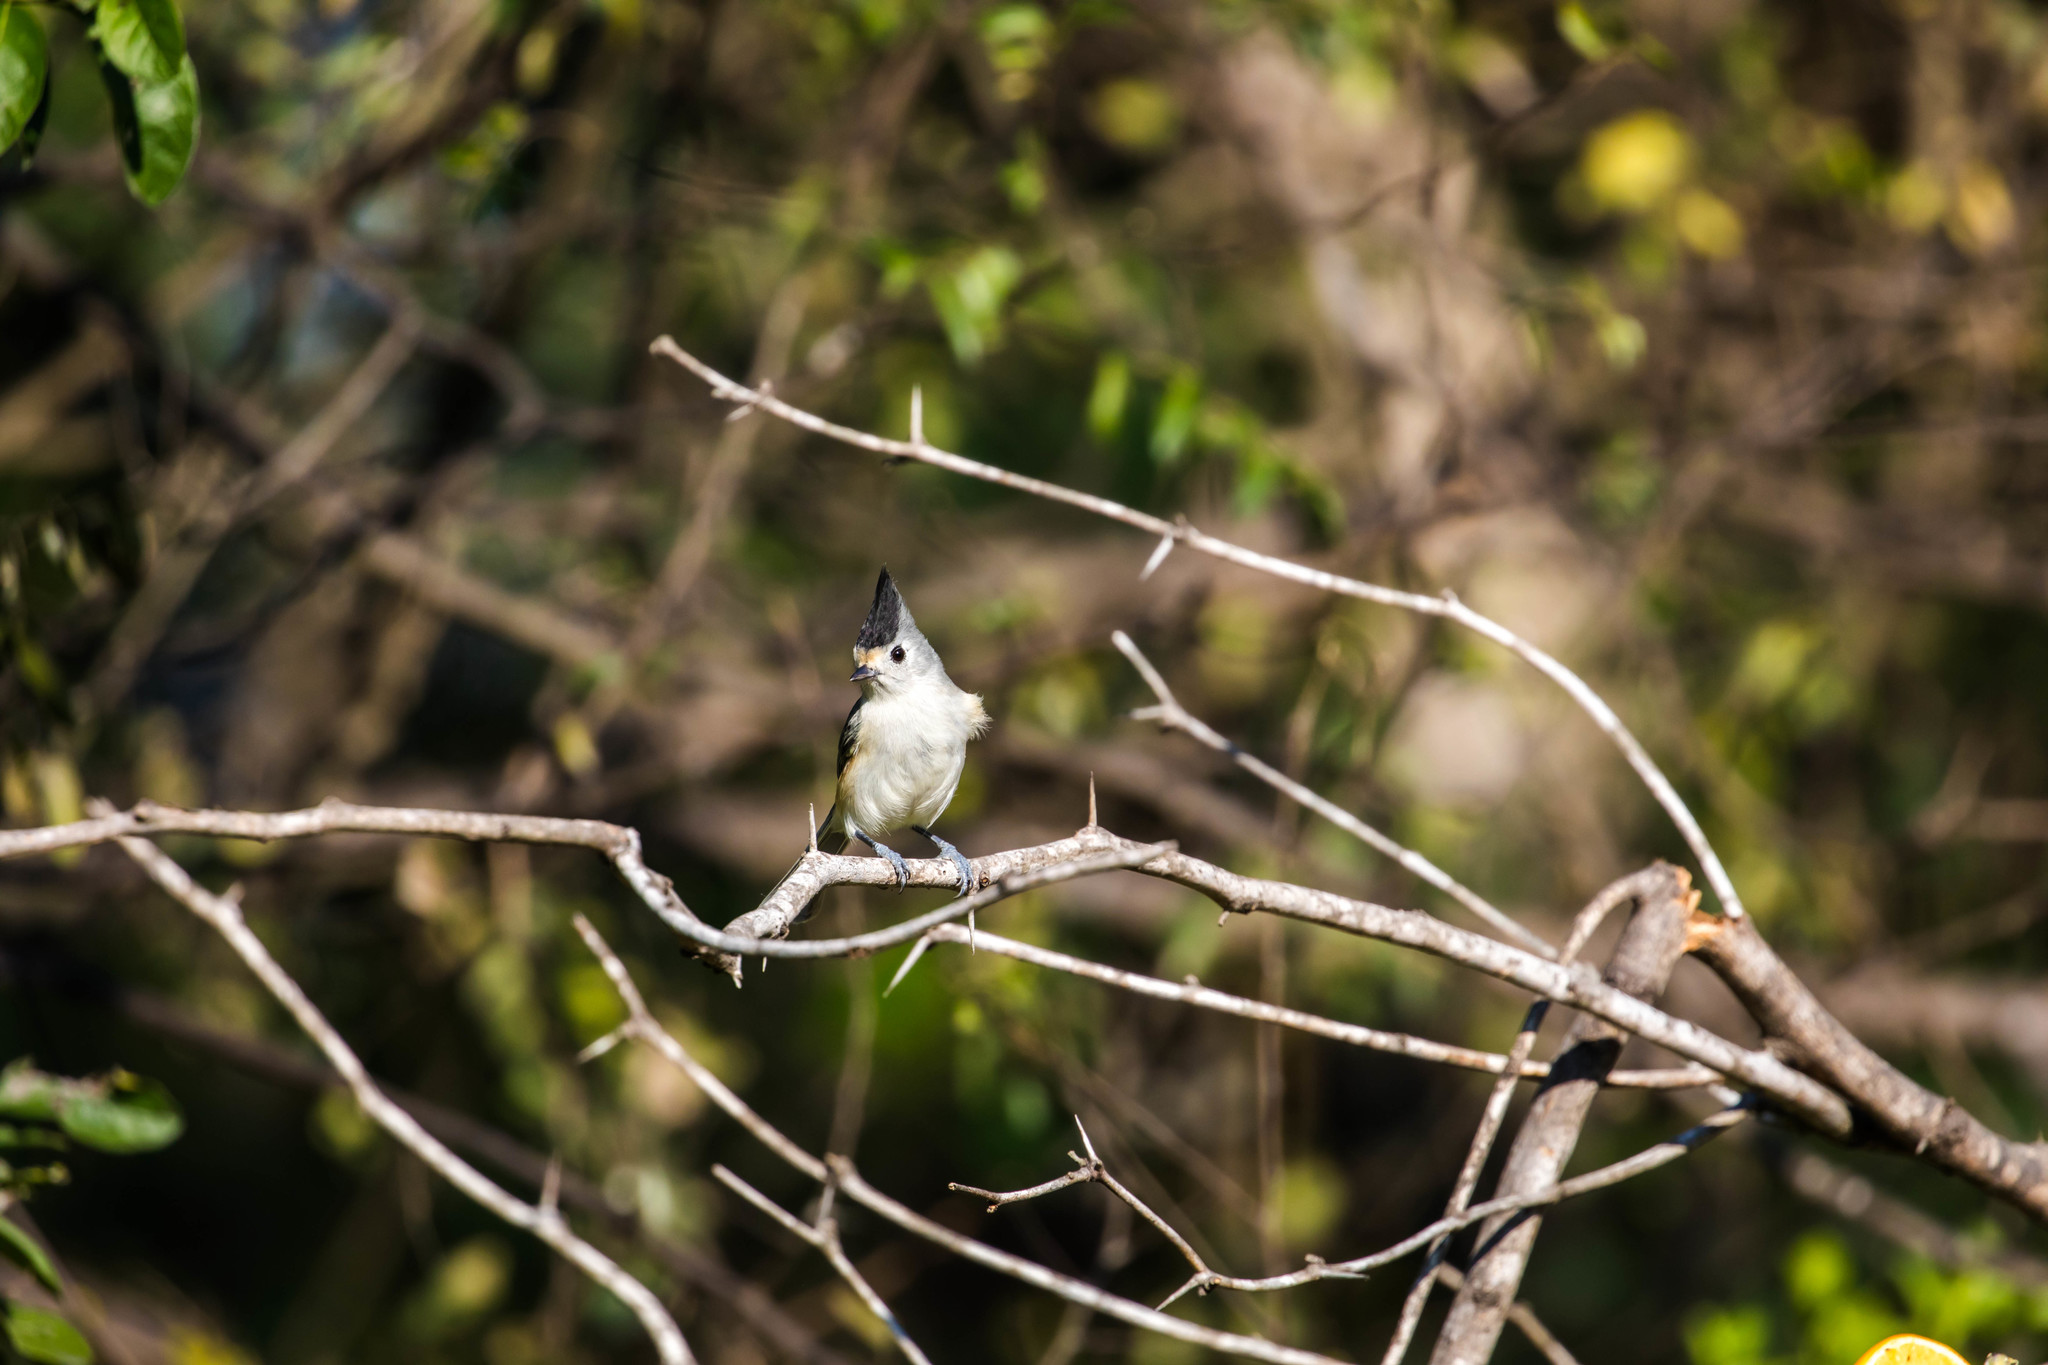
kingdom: Animalia
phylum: Chordata
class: Aves
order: Passeriformes
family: Paridae
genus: Baeolophus
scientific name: Baeolophus atricristatus
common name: Black-crested titmouse
